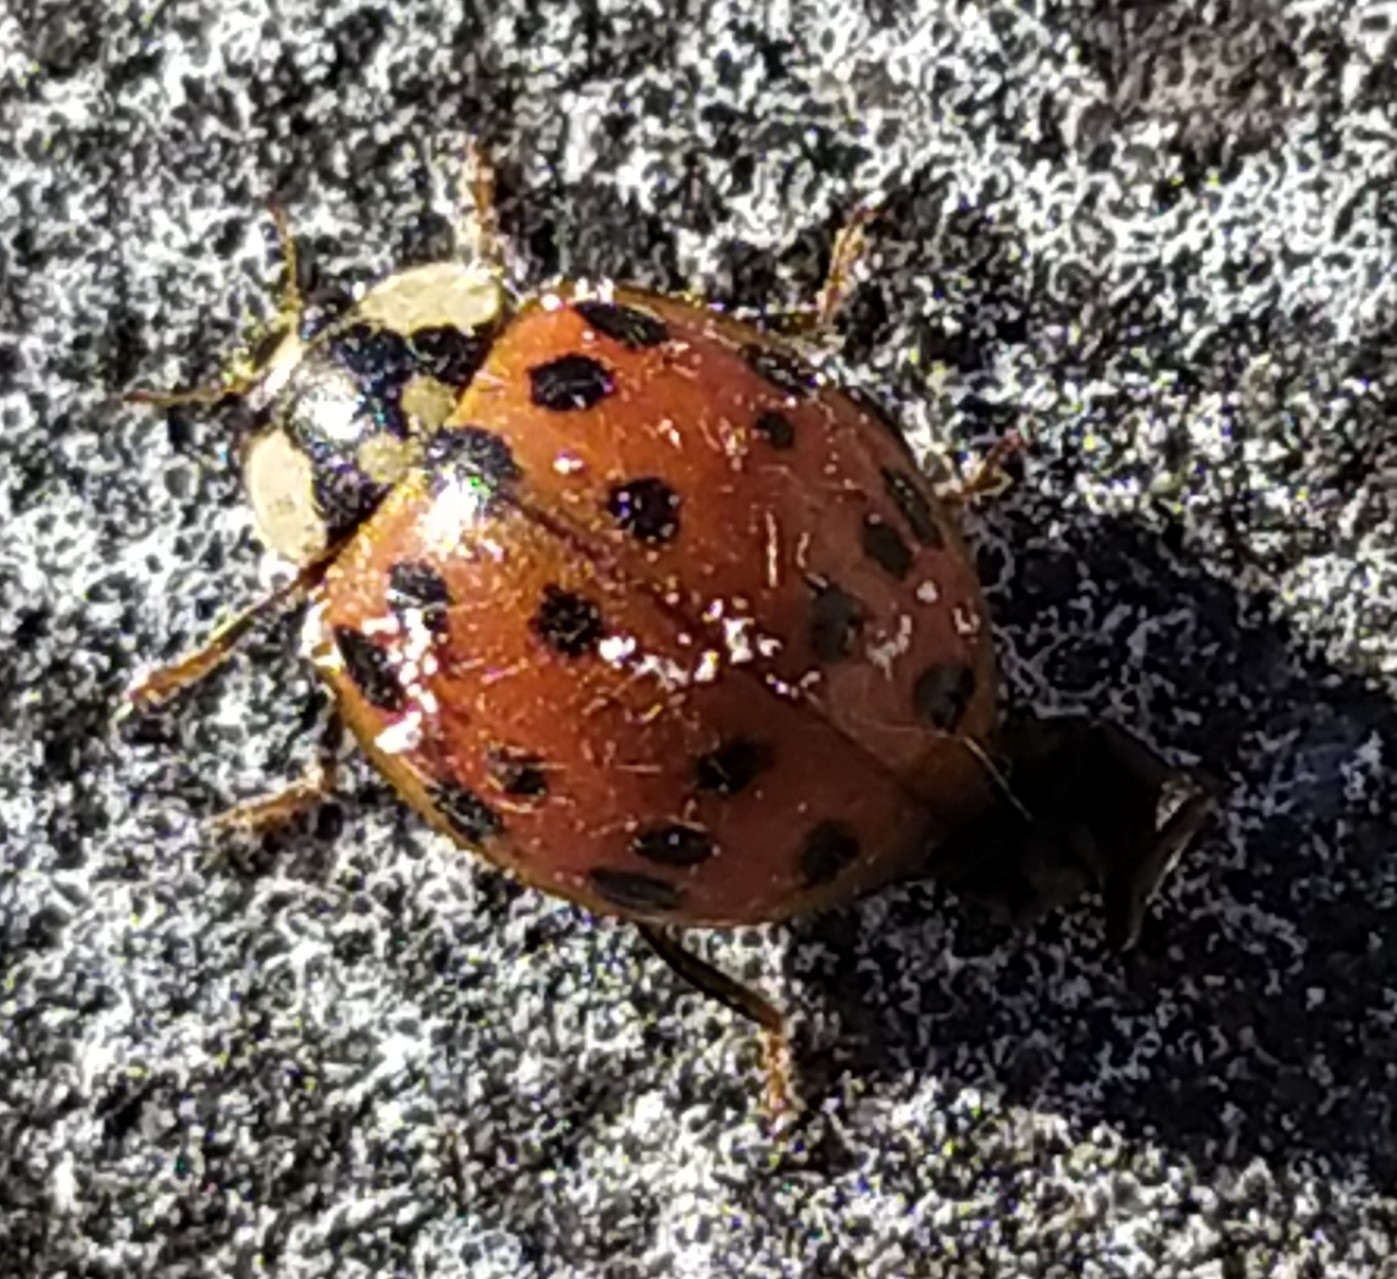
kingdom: Animalia
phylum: Arthropoda
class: Insecta
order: Coleoptera
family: Coccinellidae
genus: Harmonia
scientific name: Harmonia axyridis
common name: Harlequin ladybird
